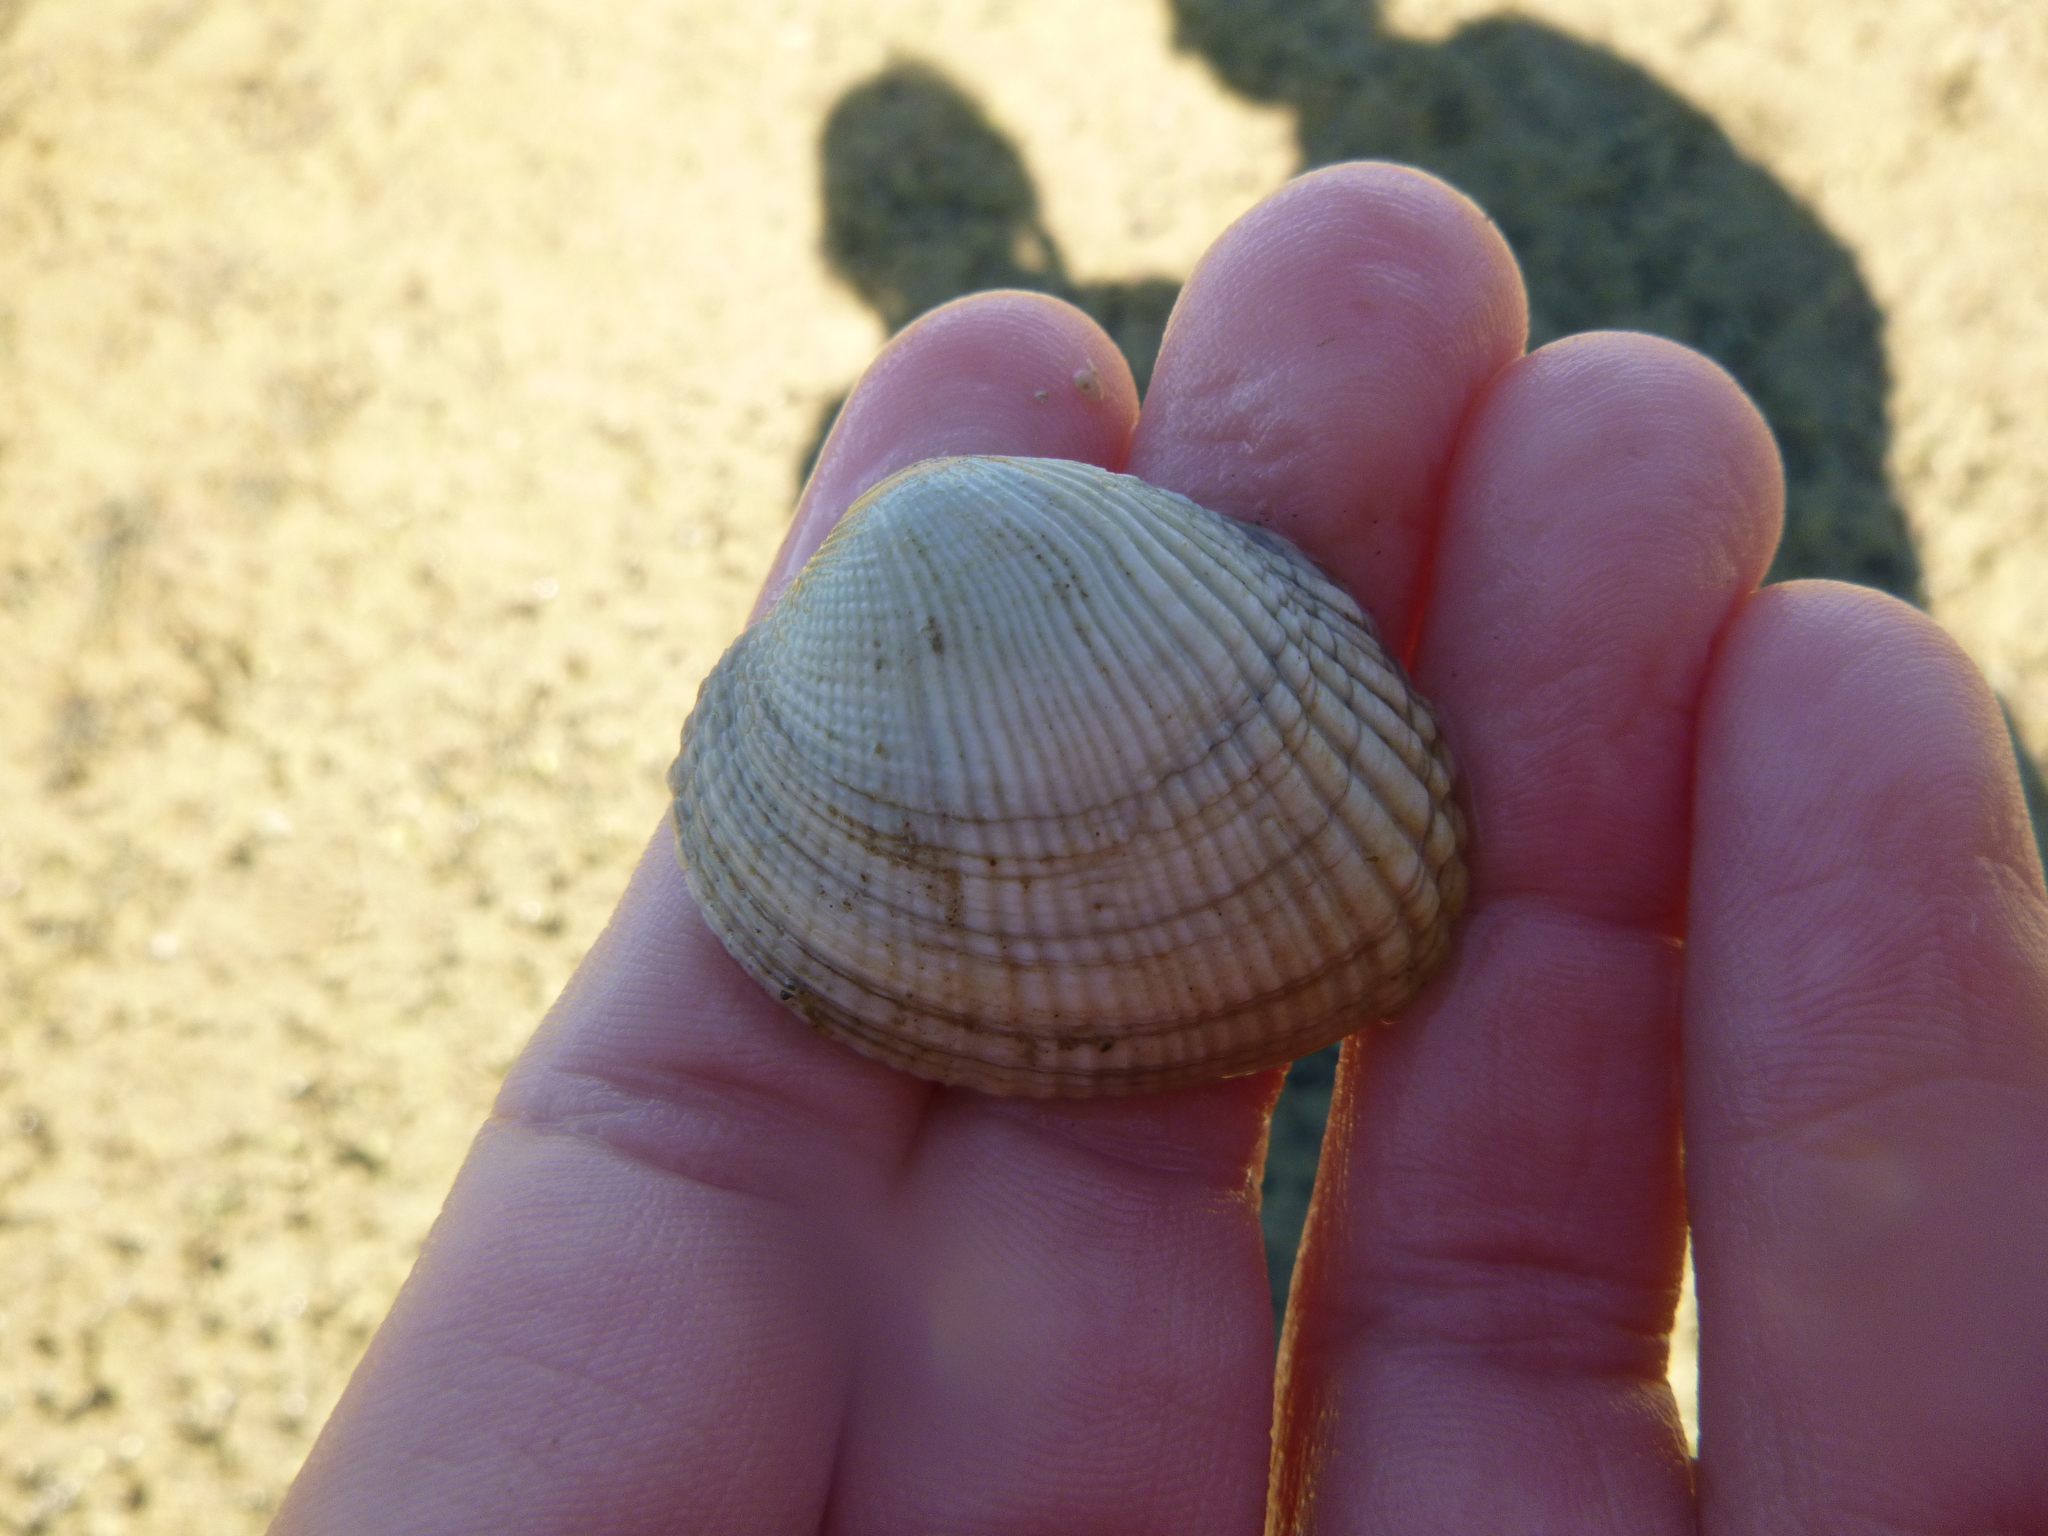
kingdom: Animalia
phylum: Mollusca
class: Bivalvia
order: Venerida
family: Veneridae
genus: Leukoma
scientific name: Leukoma crassicosta
